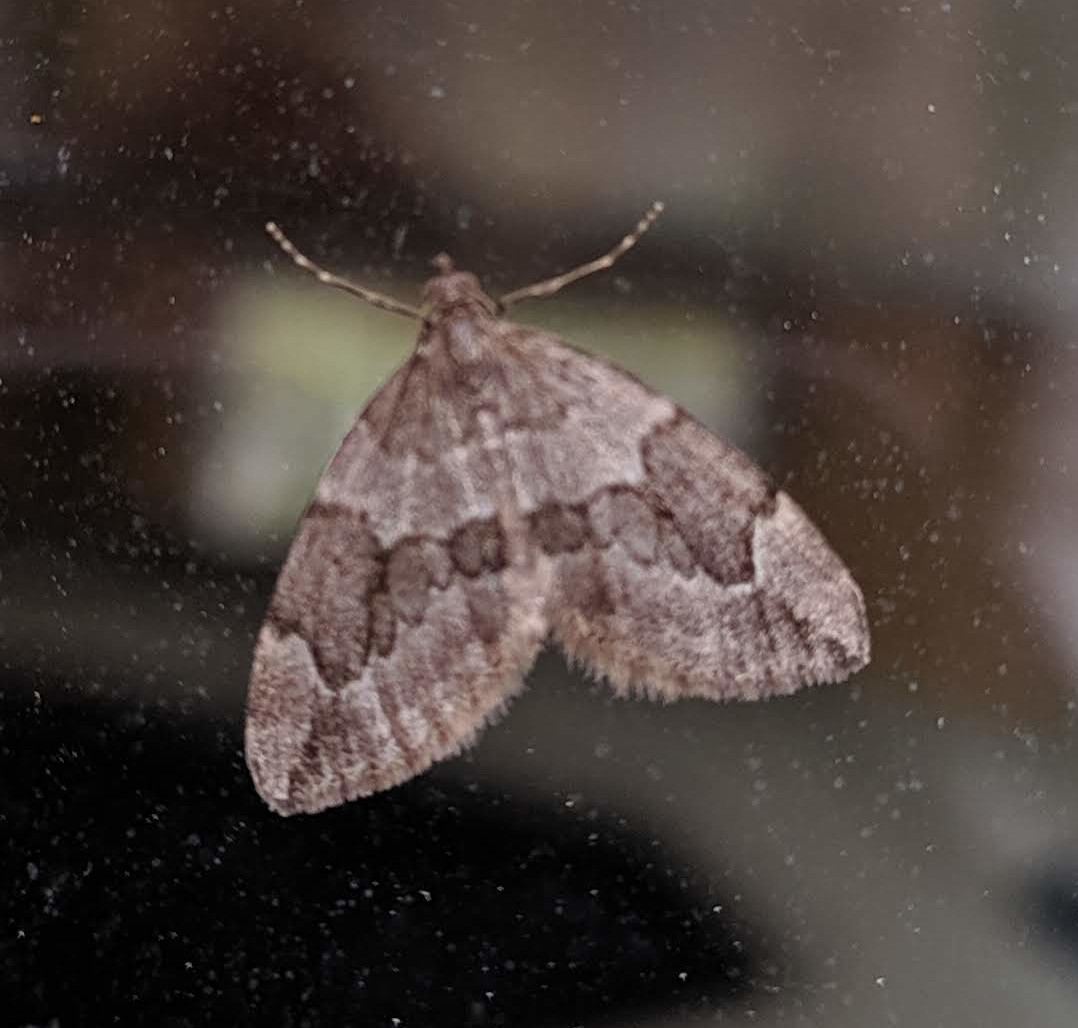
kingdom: Animalia
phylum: Arthropoda
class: Insecta
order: Lepidoptera
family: Geometridae
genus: Thera
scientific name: Thera juniperata
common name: Juniper carpet
